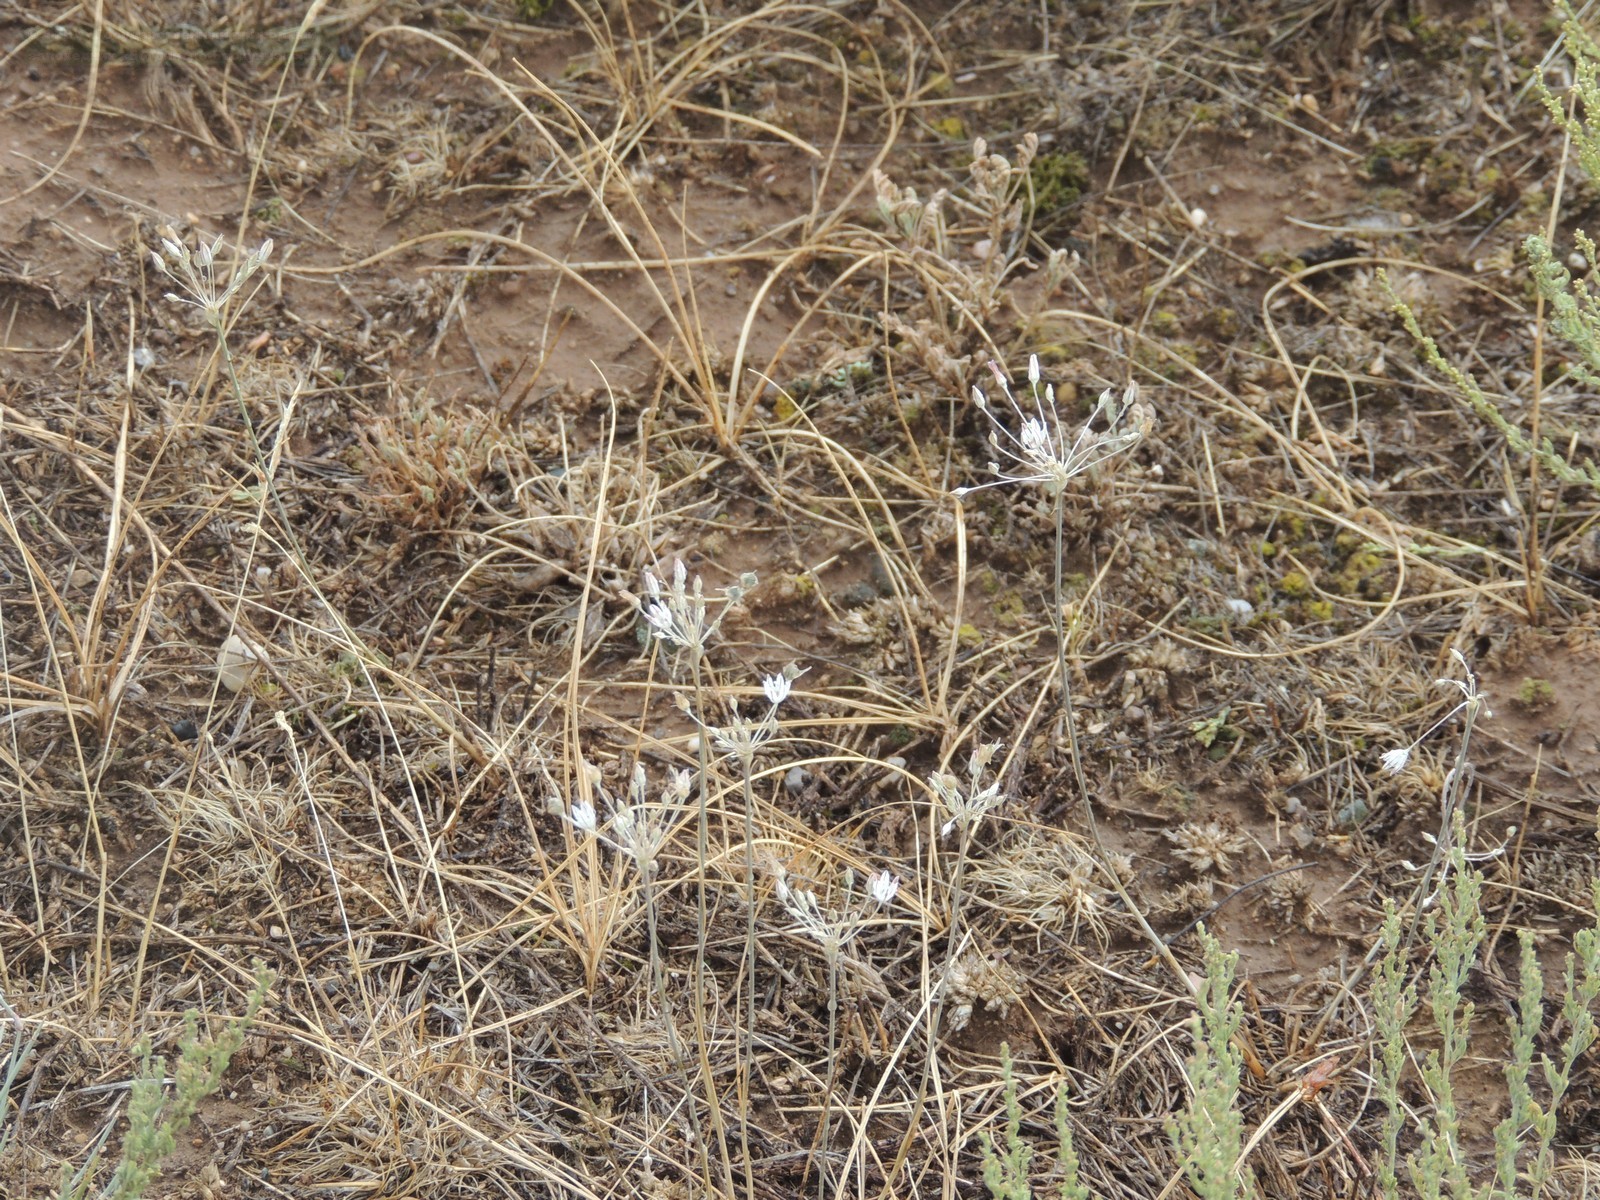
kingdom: Plantae
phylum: Tracheophyta
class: Liliopsida
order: Asparagales
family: Amaryllidaceae
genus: Allium
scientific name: Allium inaequale
